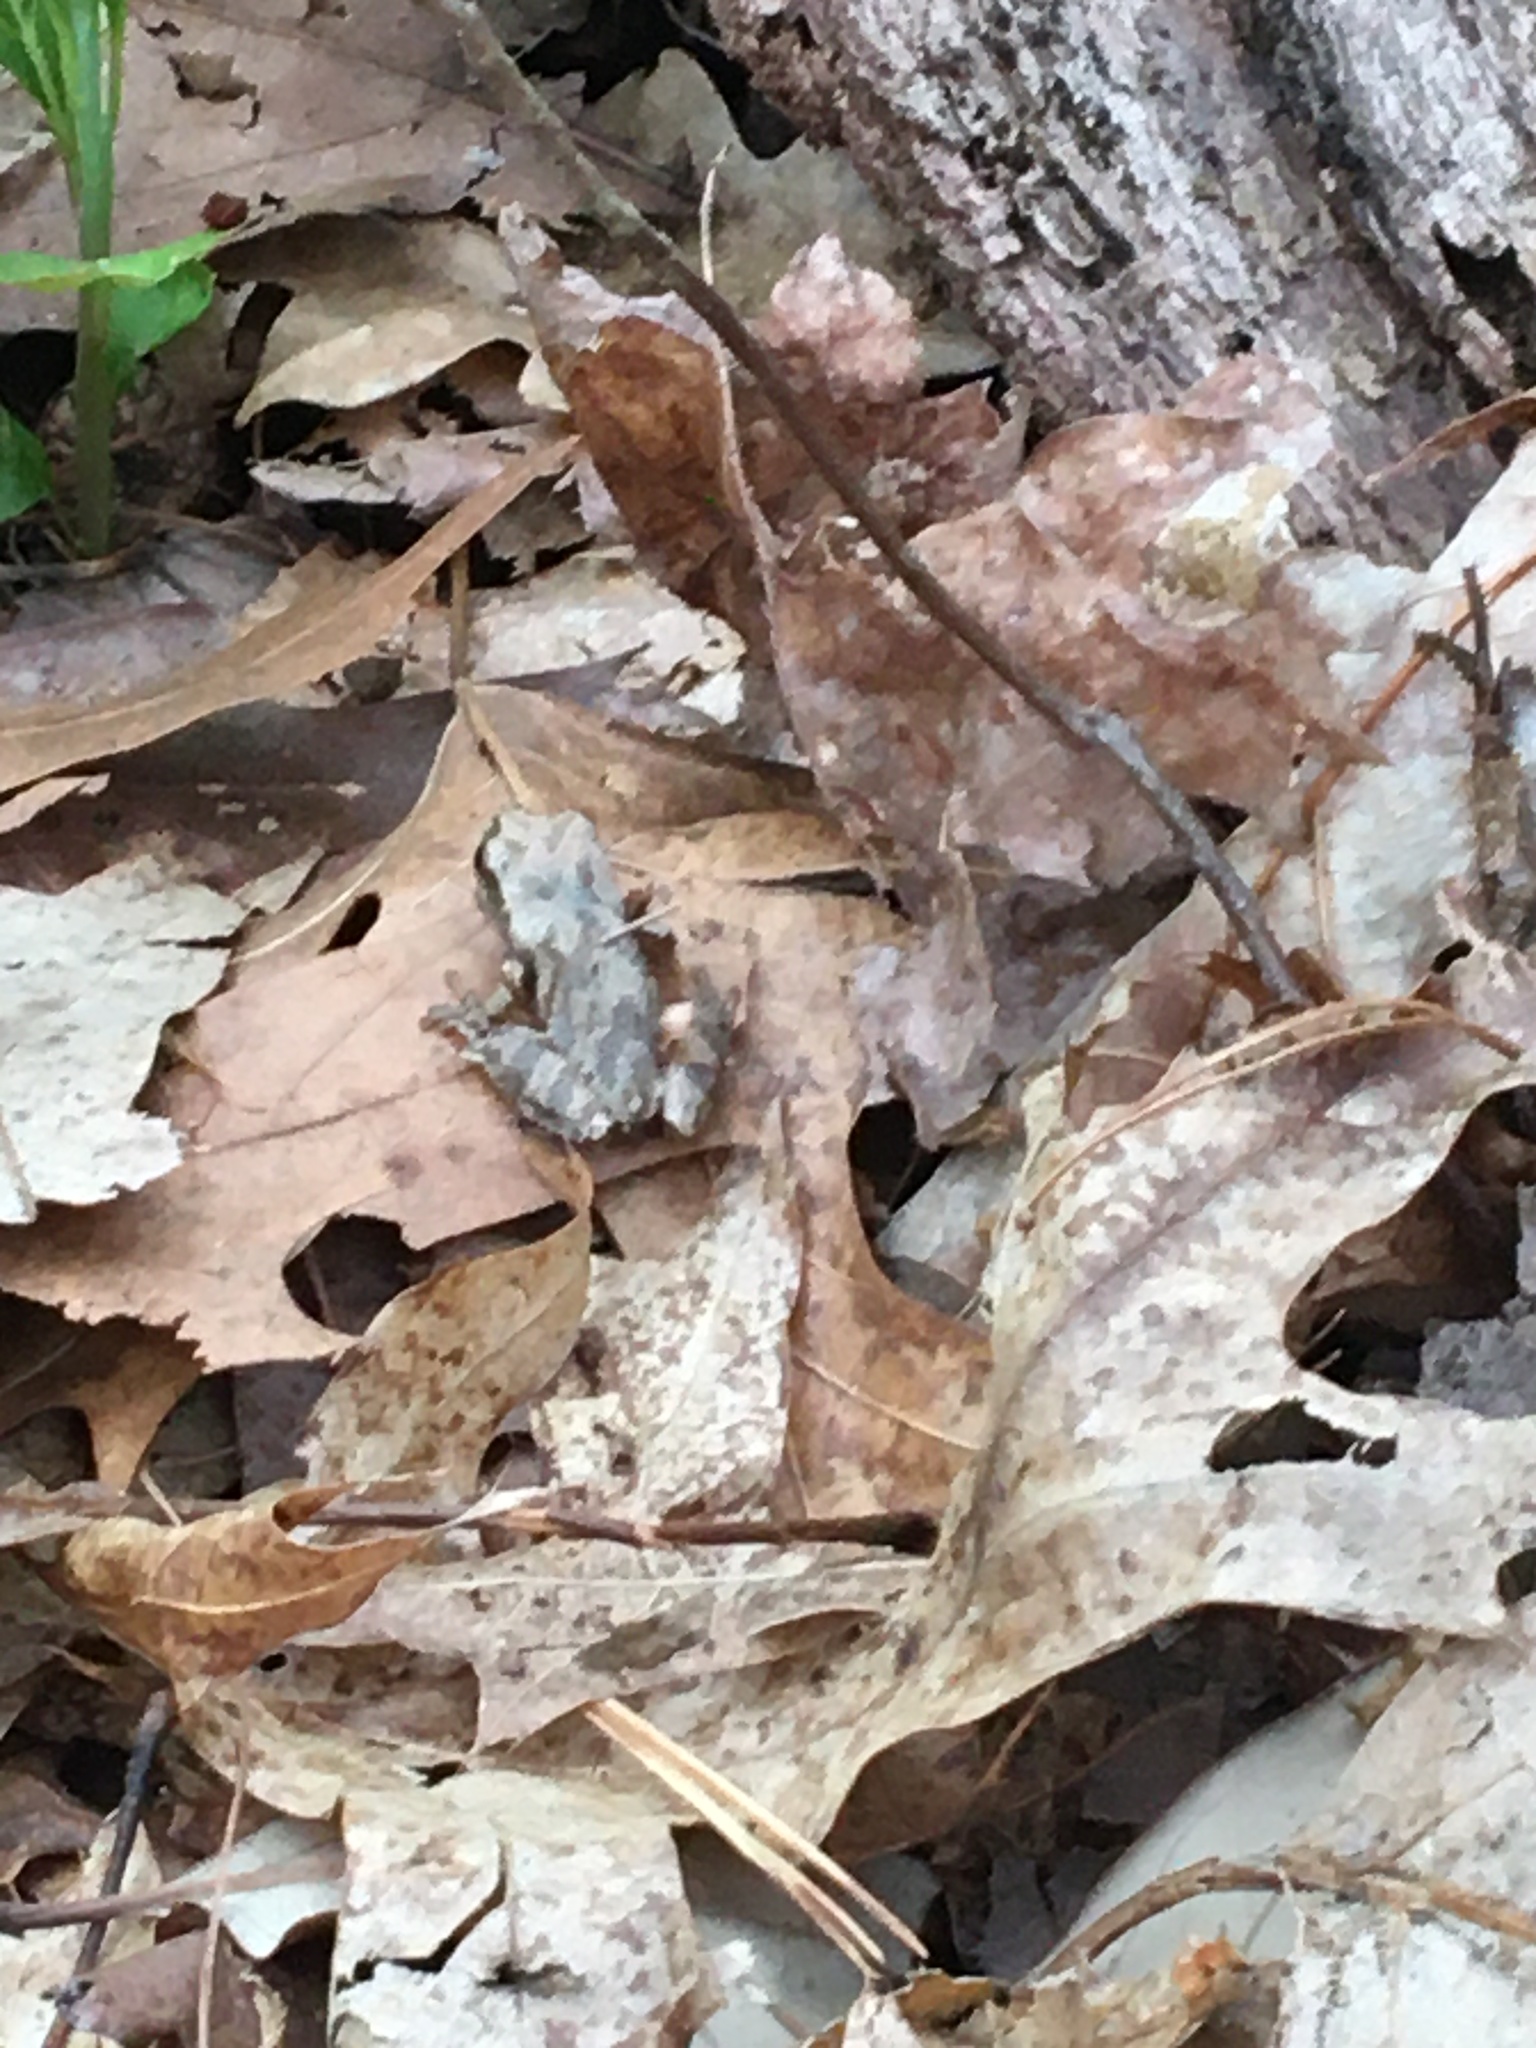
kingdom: Animalia
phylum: Chordata
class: Amphibia
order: Anura
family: Hylidae
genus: Pseudacris
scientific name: Pseudacris crucifer
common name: Spring peeper
